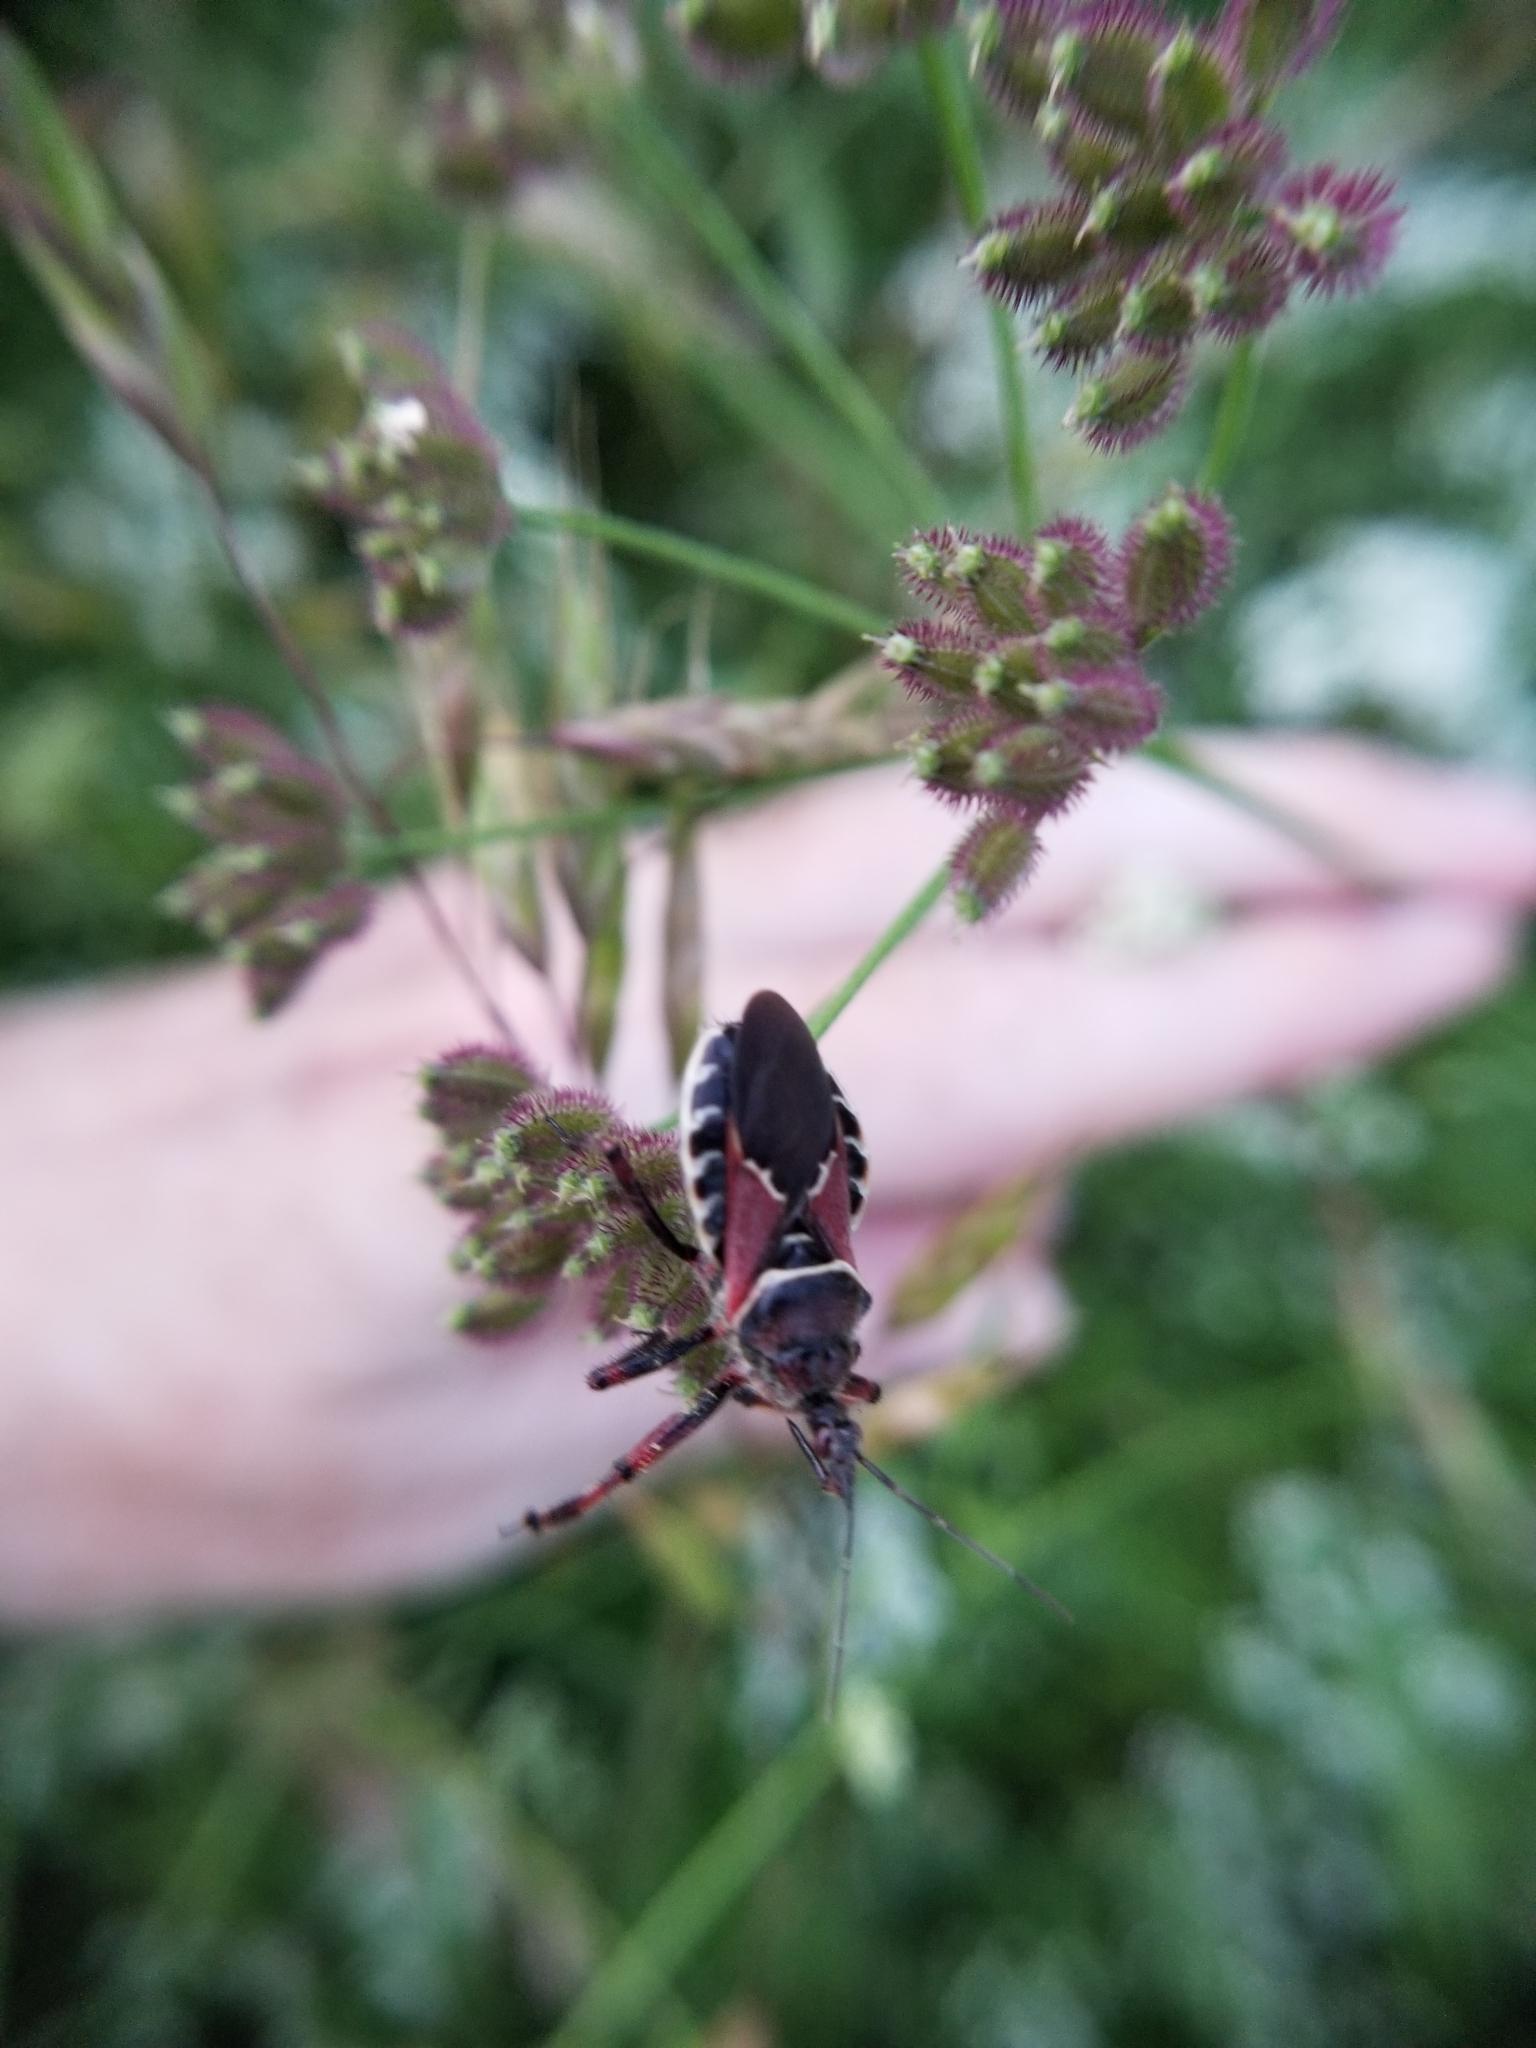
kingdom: Animalia
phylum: Arthropoda
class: Insecta
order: Hemiptera
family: Reduviidae
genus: Apiomerus
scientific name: Apiomerus spissipes
